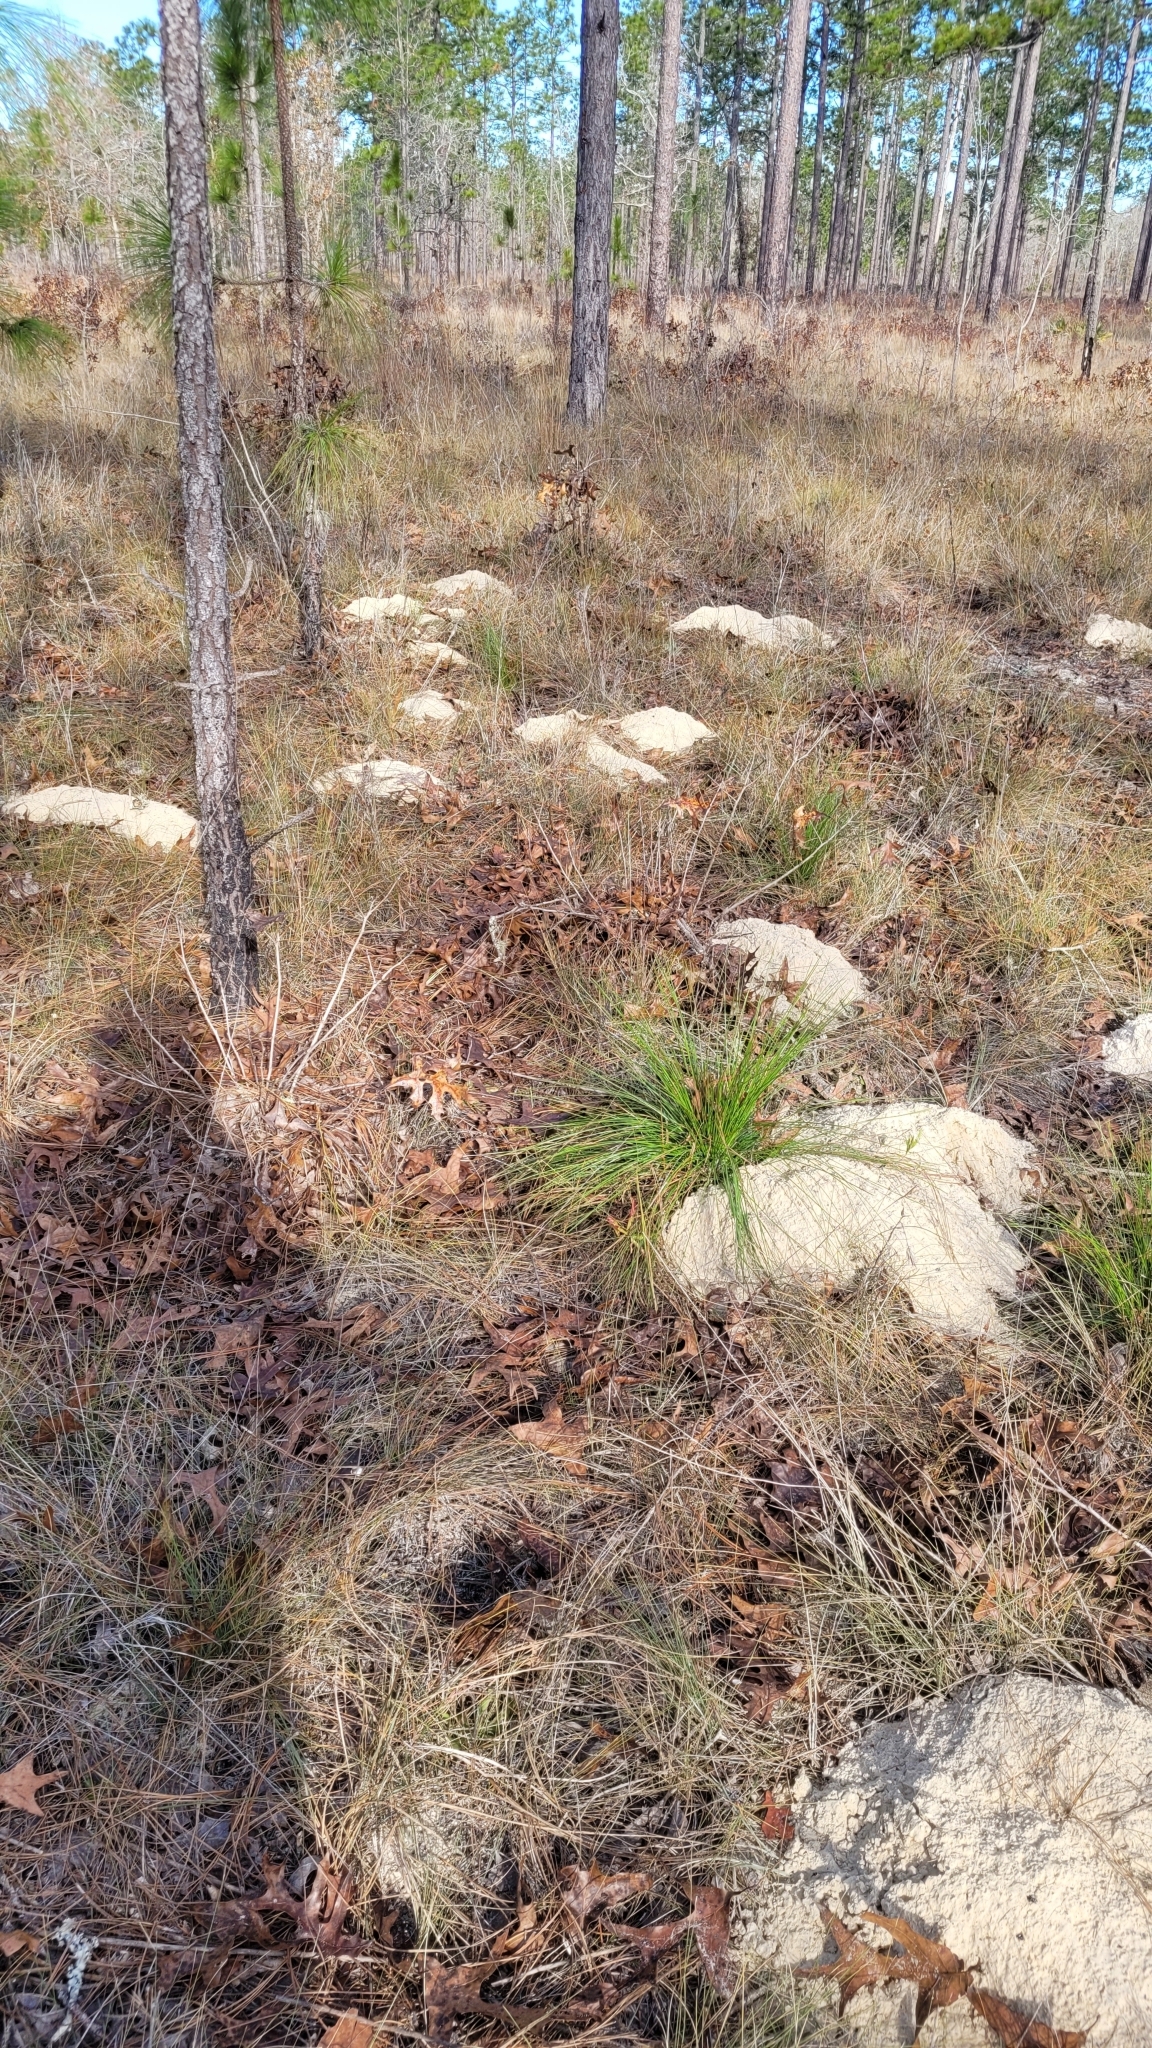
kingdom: Animalia
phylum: Chordata
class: Mammalia
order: Rodentia
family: Geomyidae
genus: Geomys
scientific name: Geomys pinetis
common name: Southeastern pocket gopher
